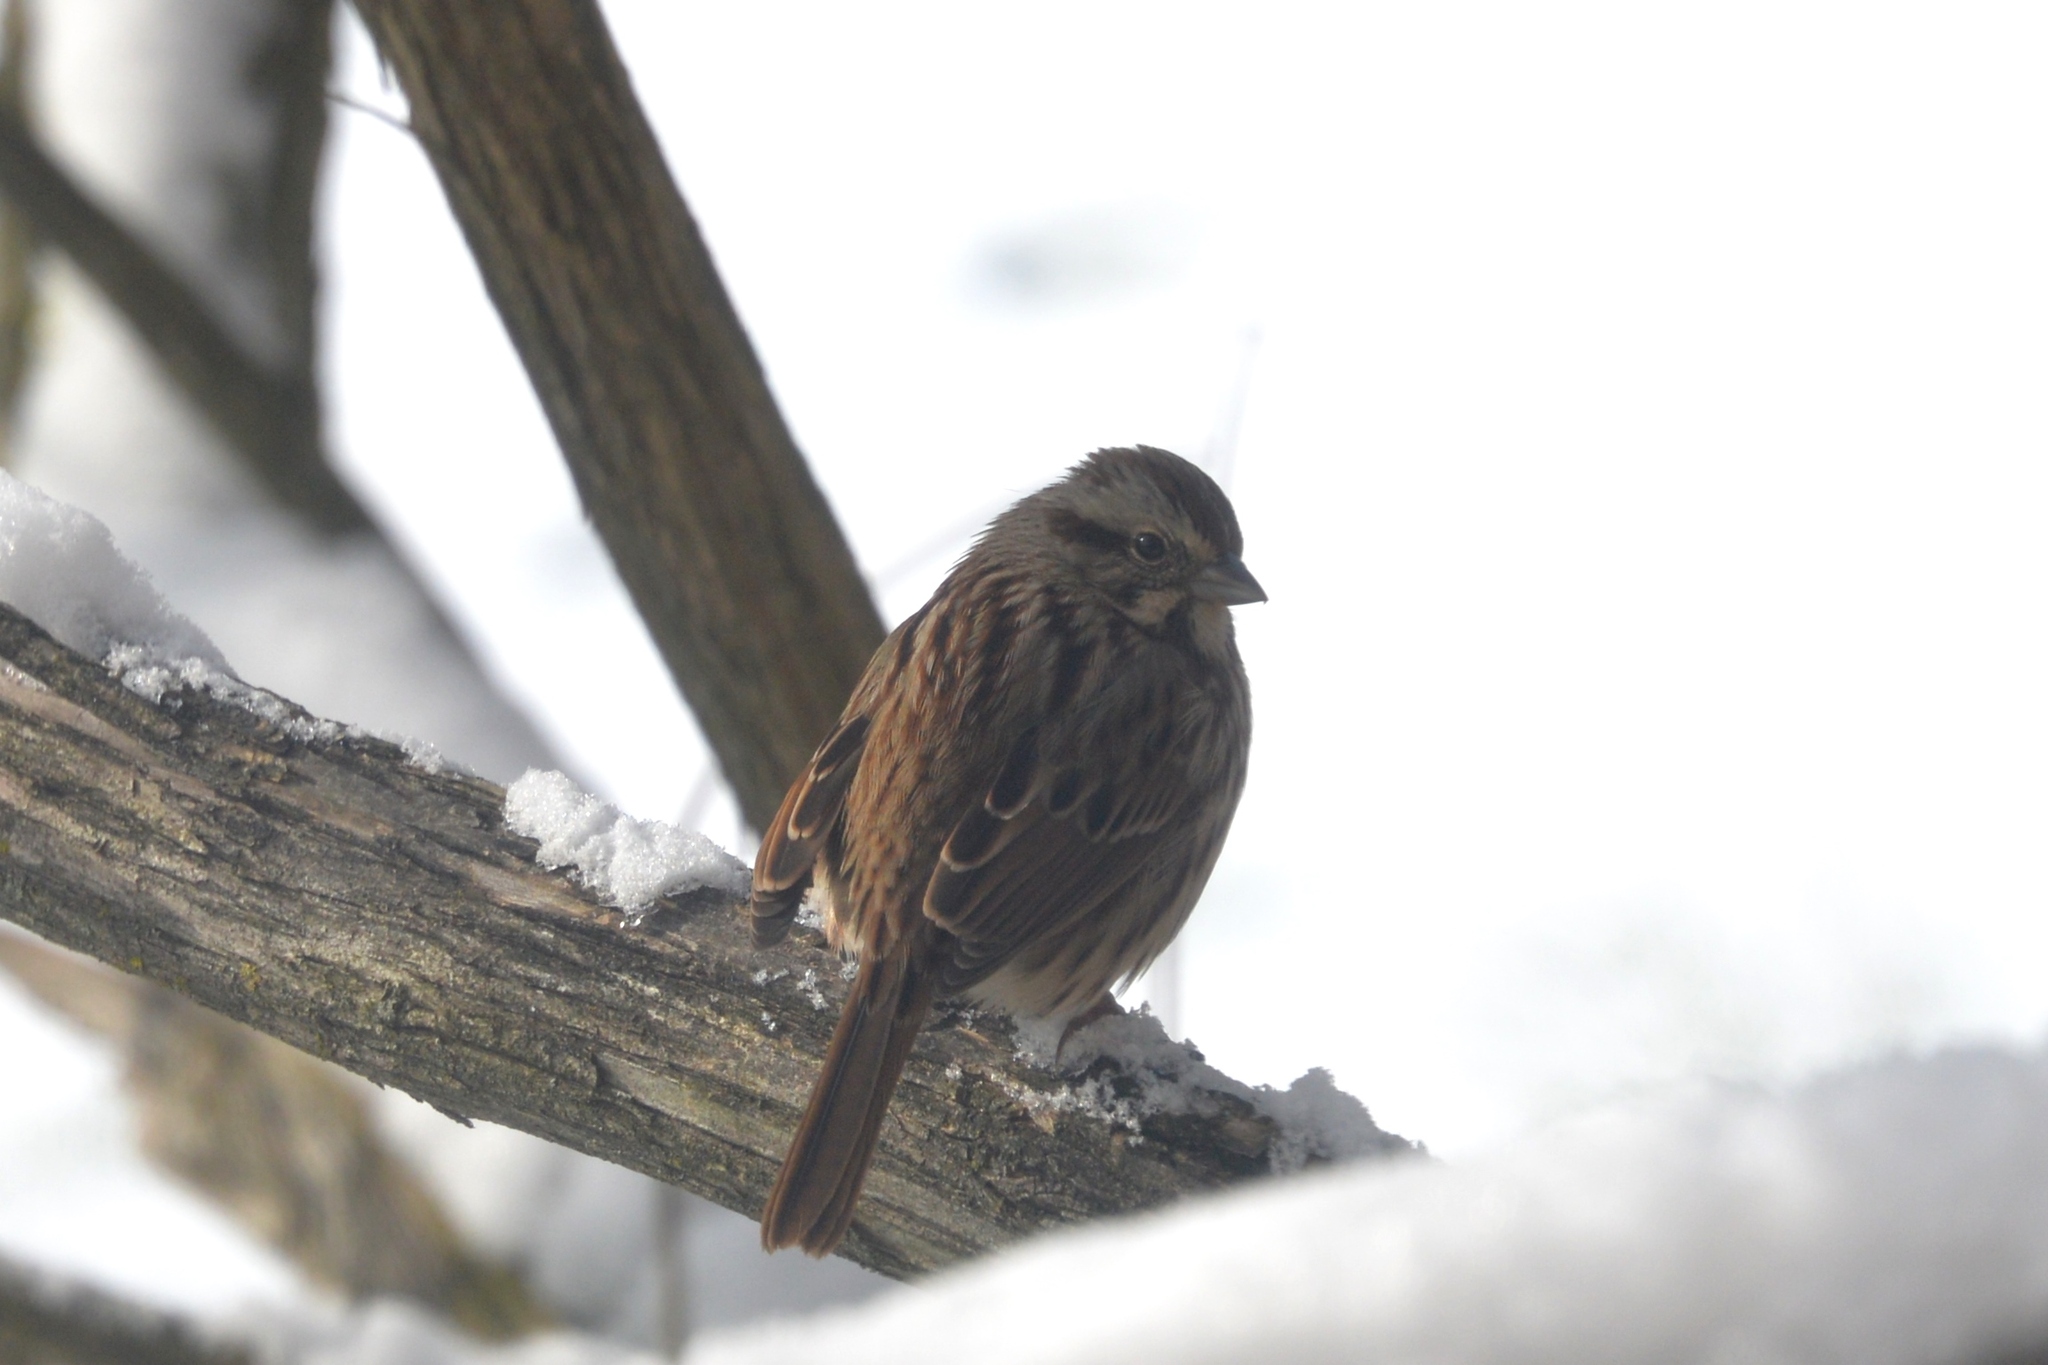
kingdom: Animalia
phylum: Chordata
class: Aves
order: Passeriformes
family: Passerellidae
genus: Melospiza
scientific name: Melospiza melodia
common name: Song sparrow
